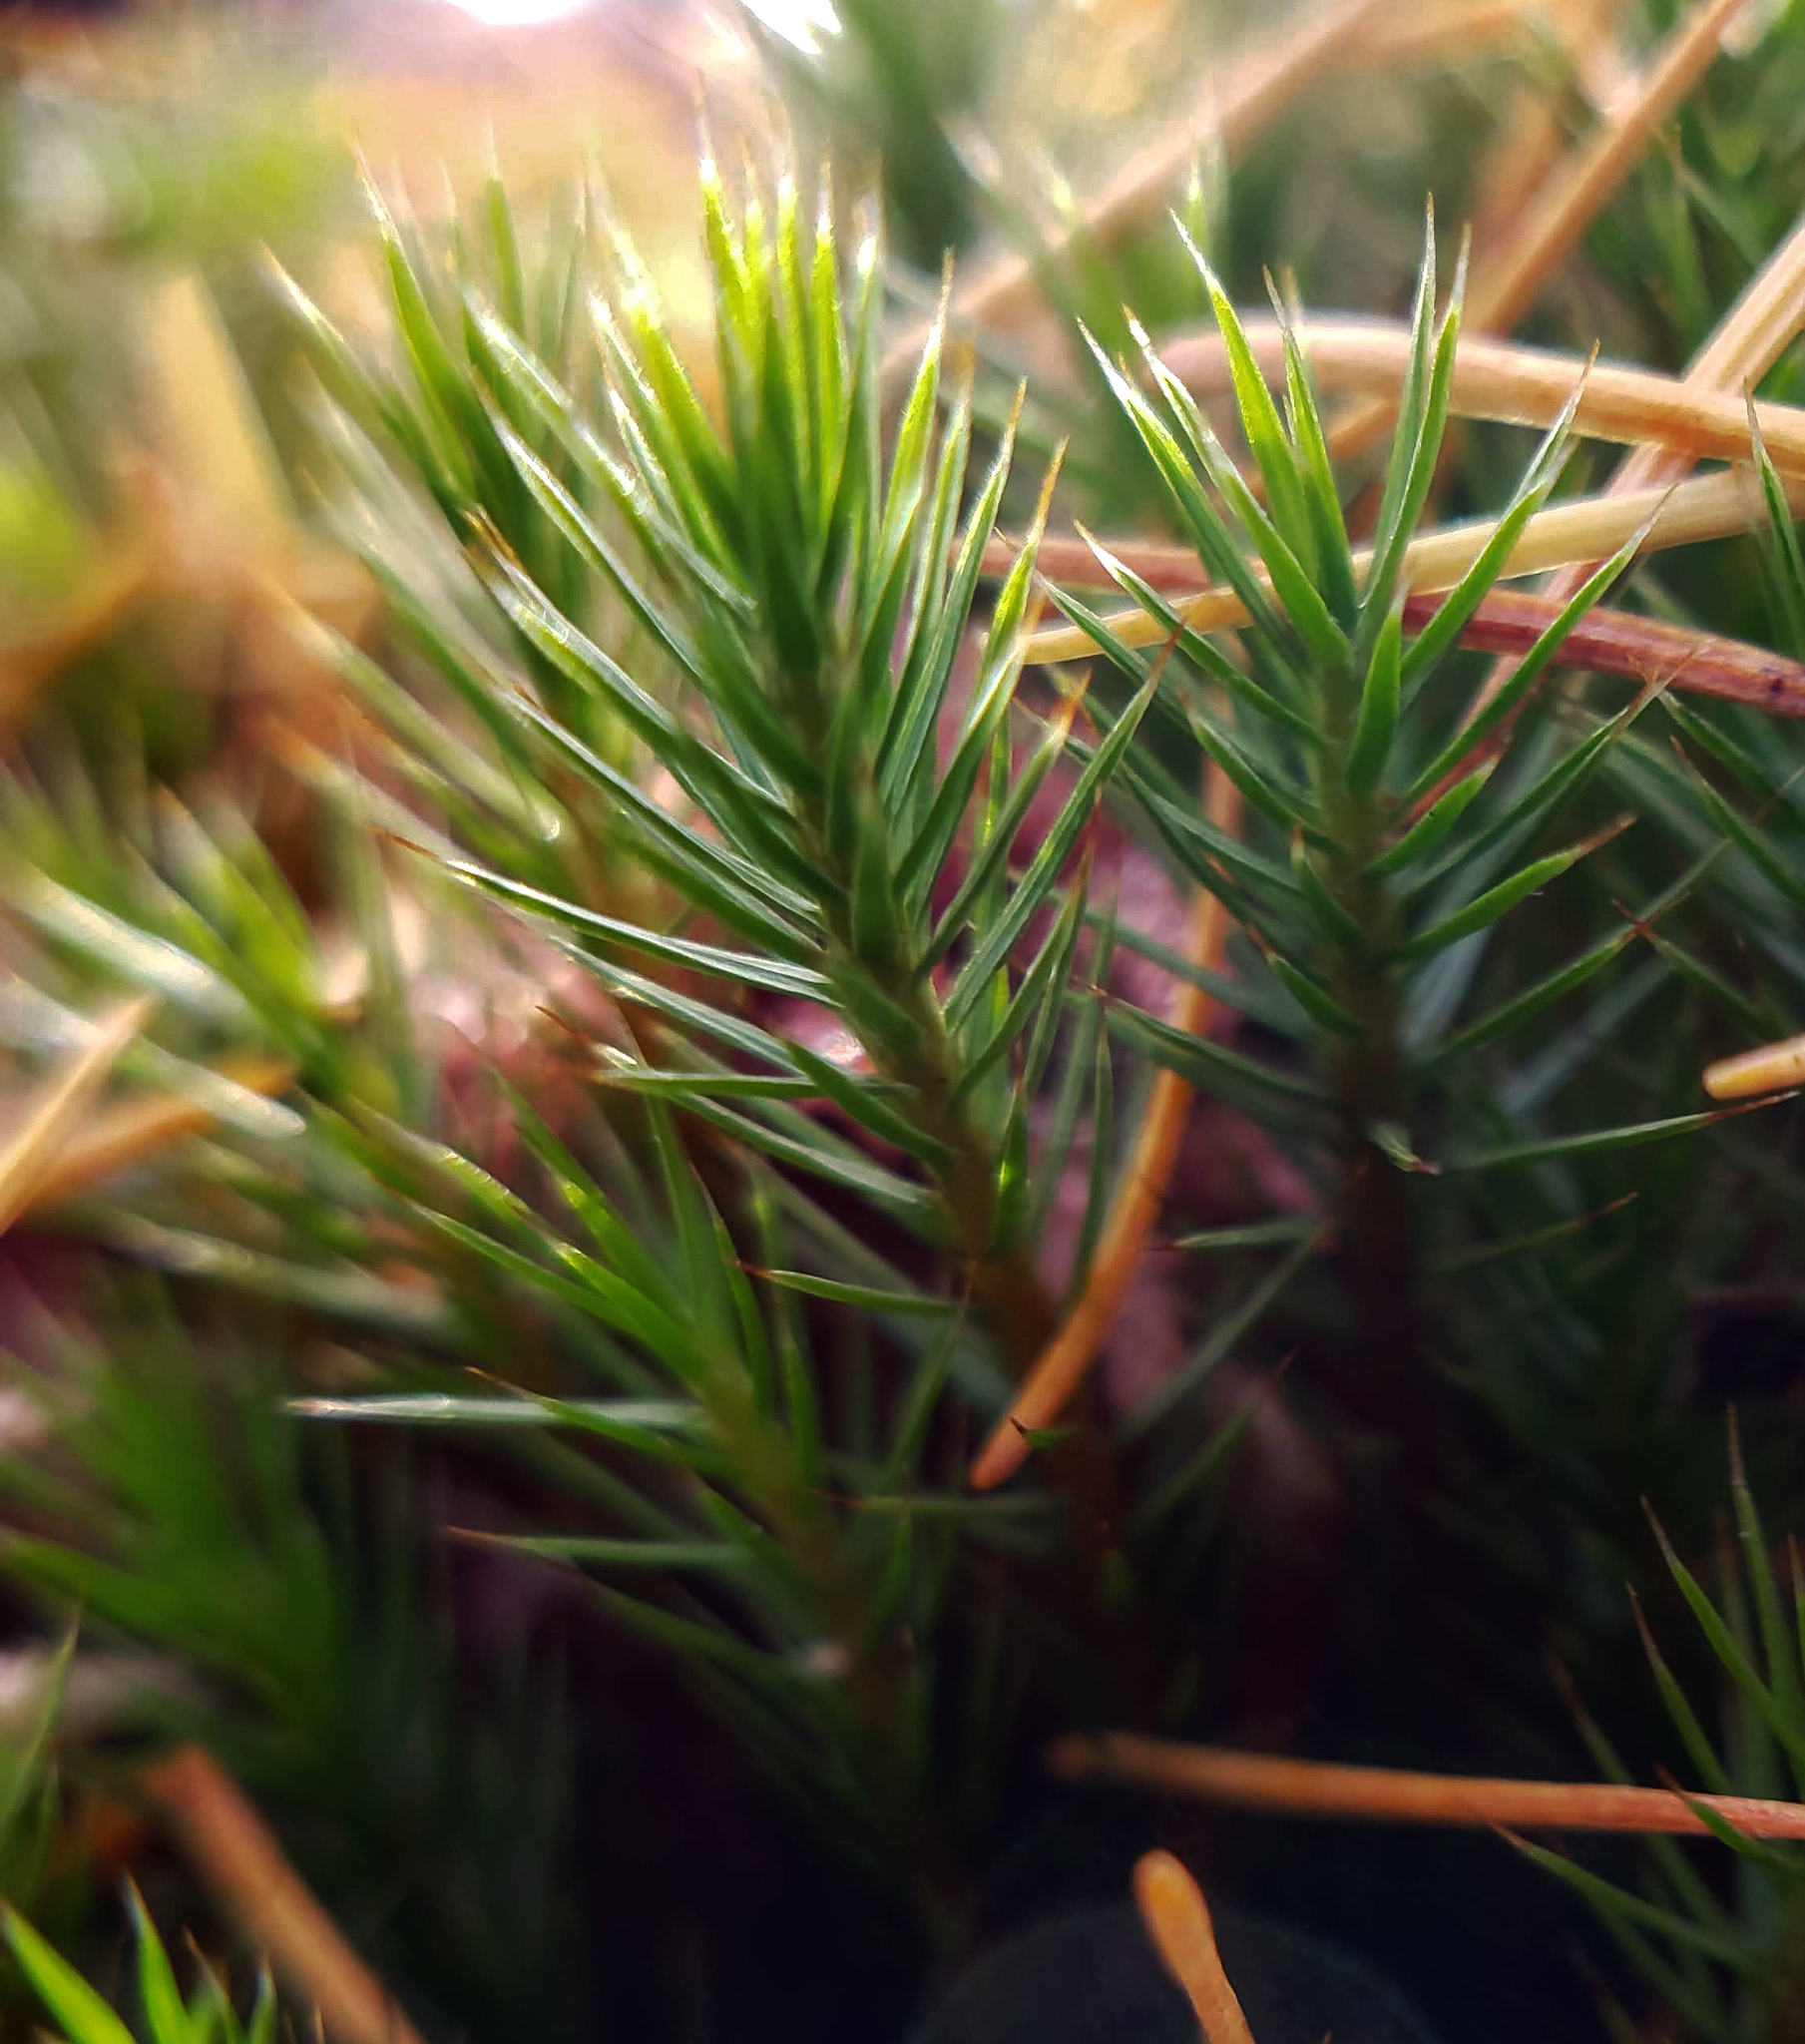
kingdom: Plantae
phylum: Bryophyta
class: Polytrichopsida
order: Polytrichales
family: Polytrichaceae
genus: Polytrichum
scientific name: Polytrichum strictum
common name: Bog haircap moss
